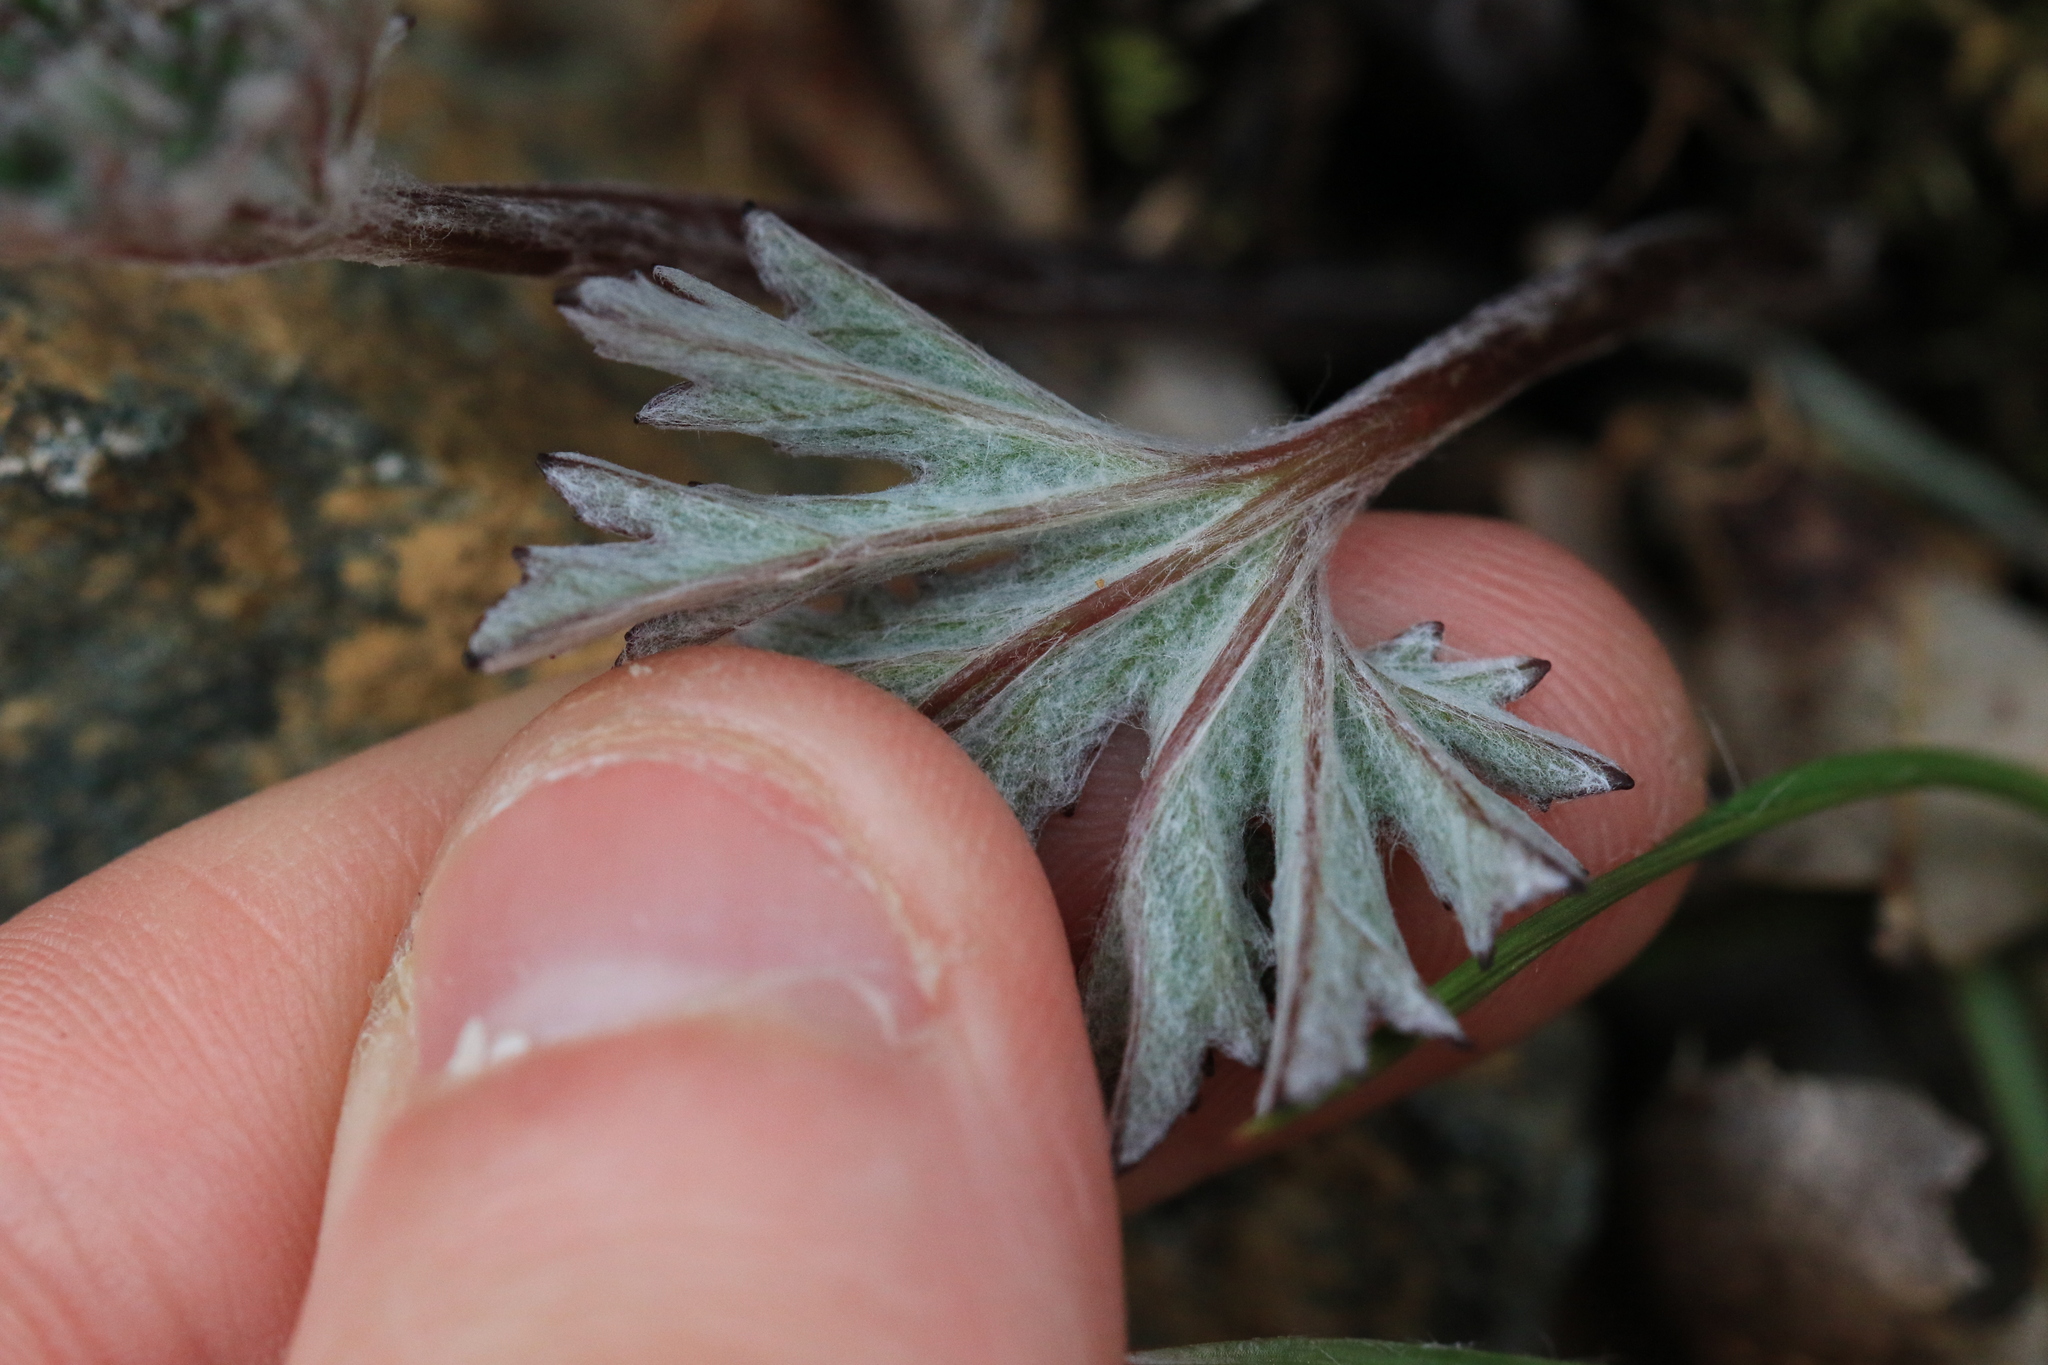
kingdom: Plantae
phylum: Tracheophyta
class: Magnoliopsida
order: Asterales
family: Asteraceae
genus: Eriophyllum
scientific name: Eriophyllum lanatum
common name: Common woolly-sunflower
